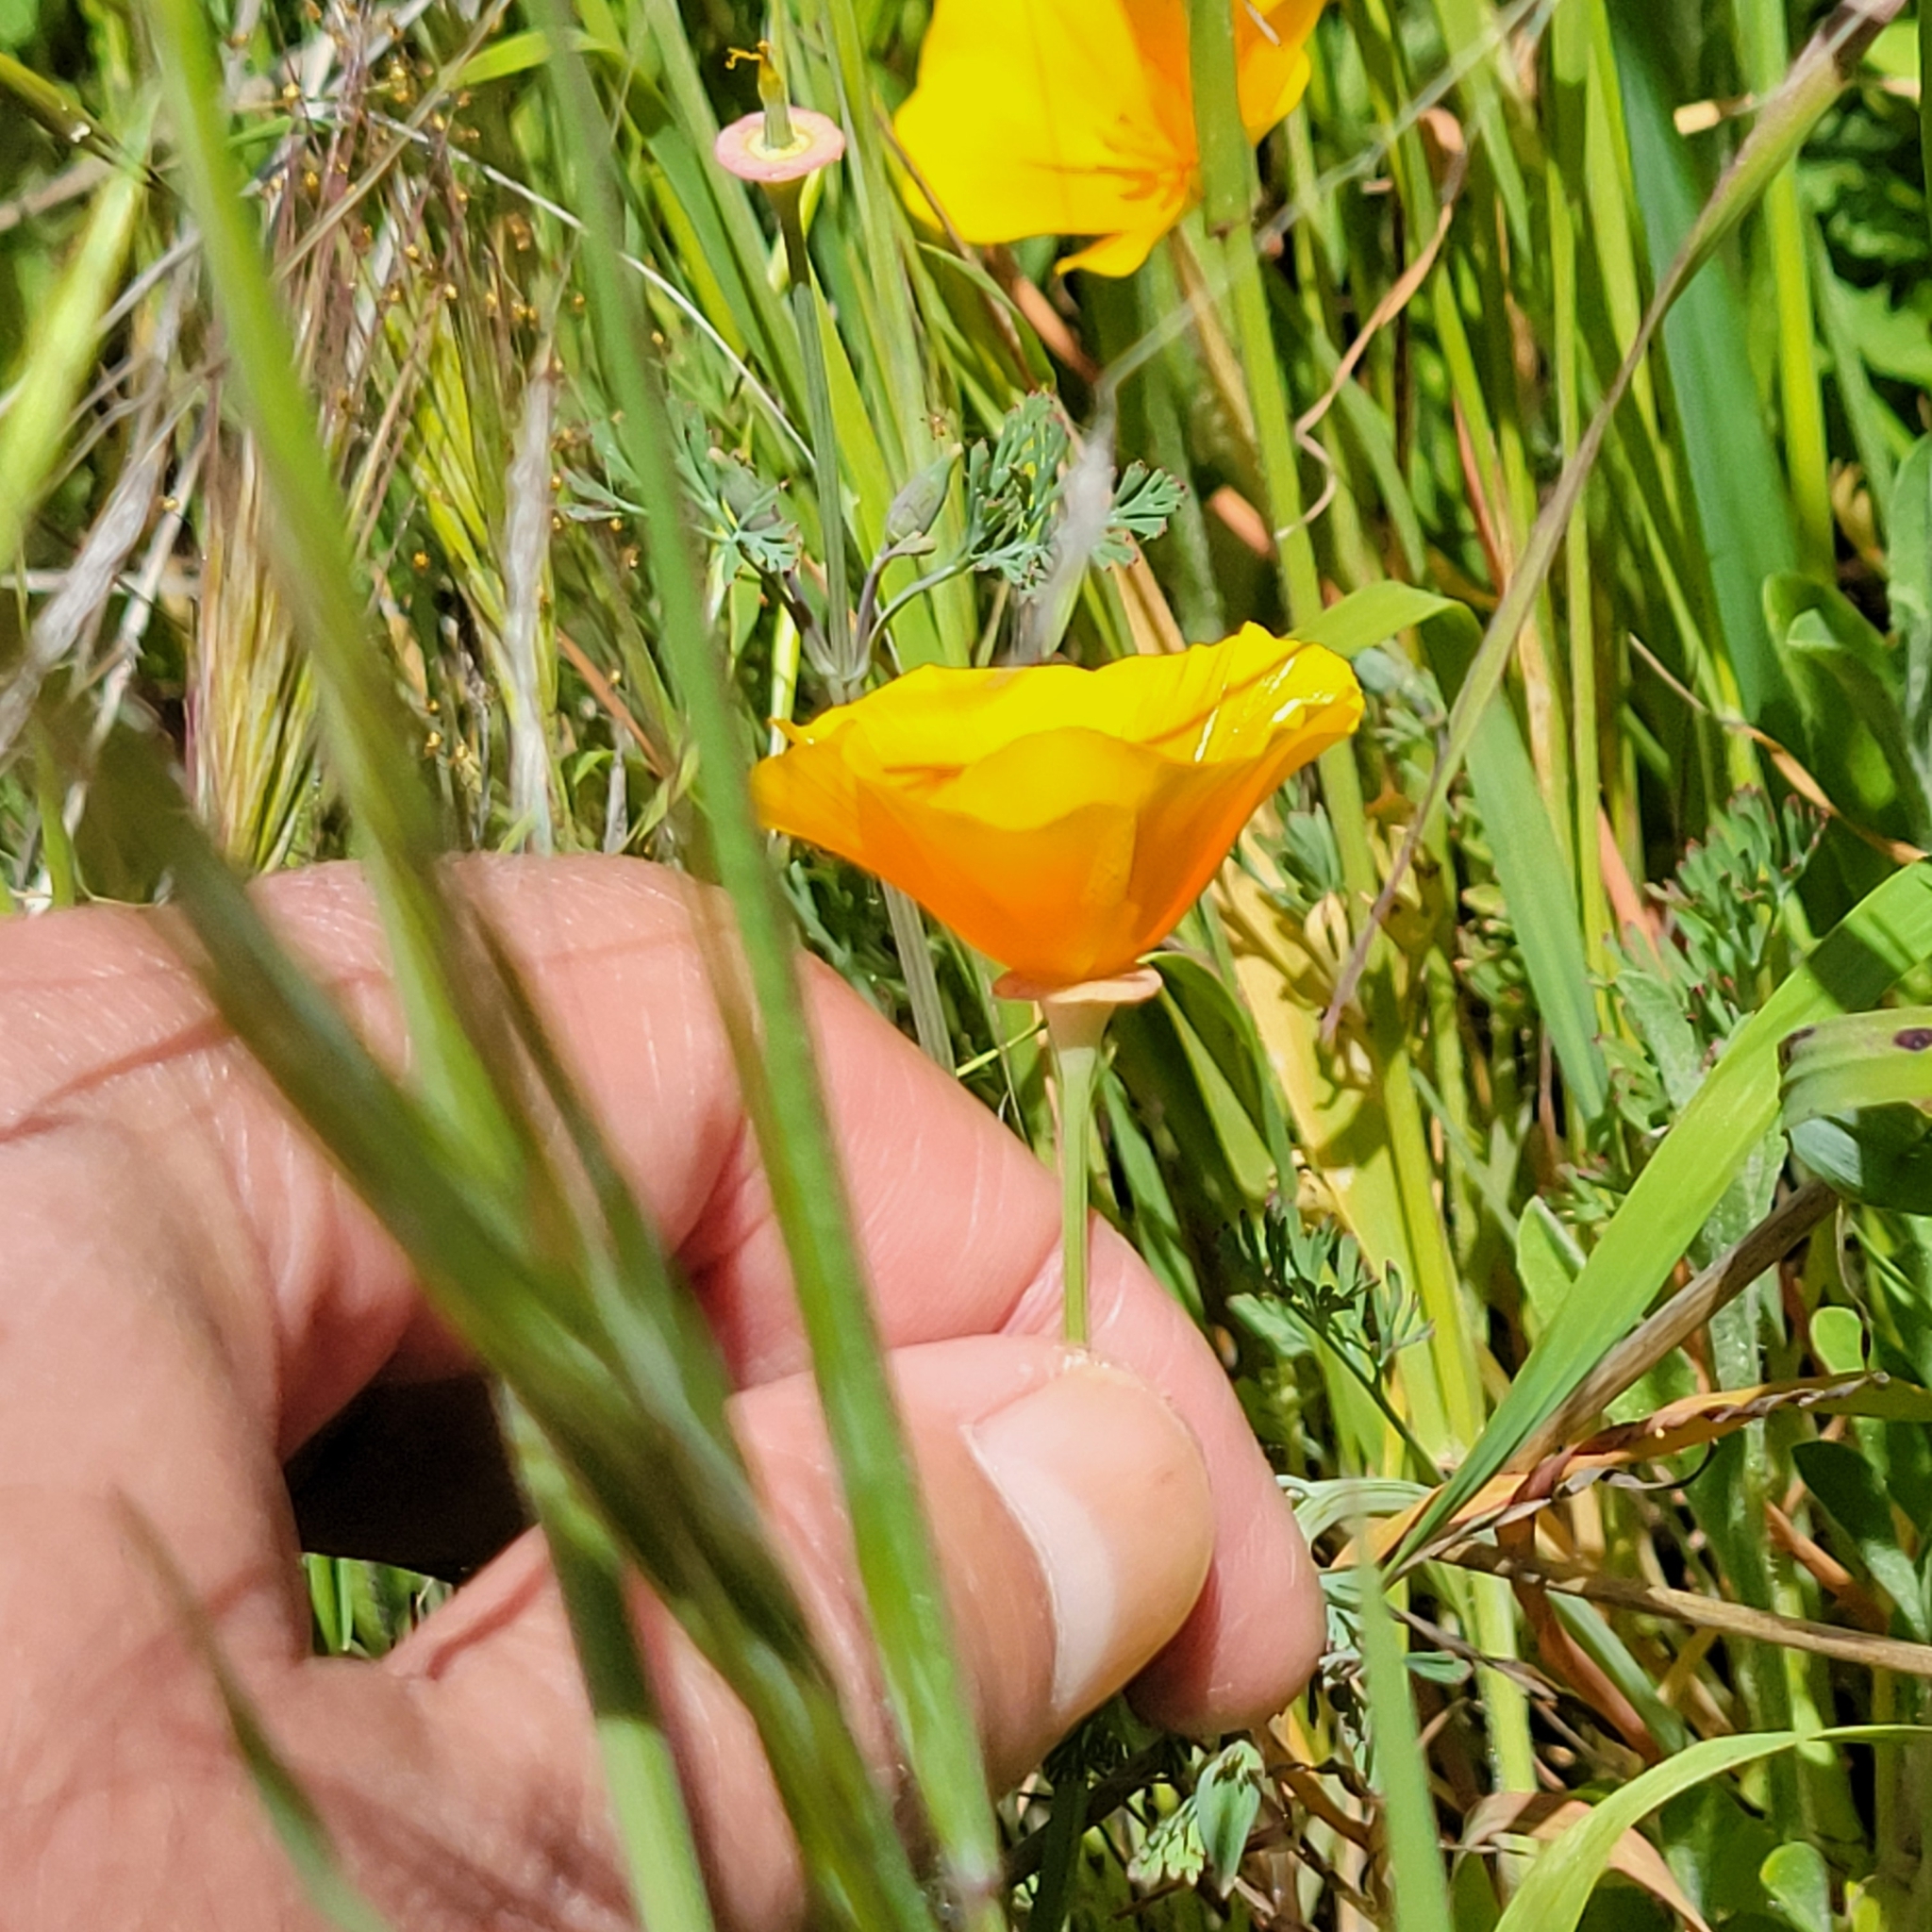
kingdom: Plantae
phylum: Tracheophyta
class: Magnoliopsida
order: Ranunculales
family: Papaveraceae
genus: Eschscholzia
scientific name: Eschscholzia californica
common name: California poppy
